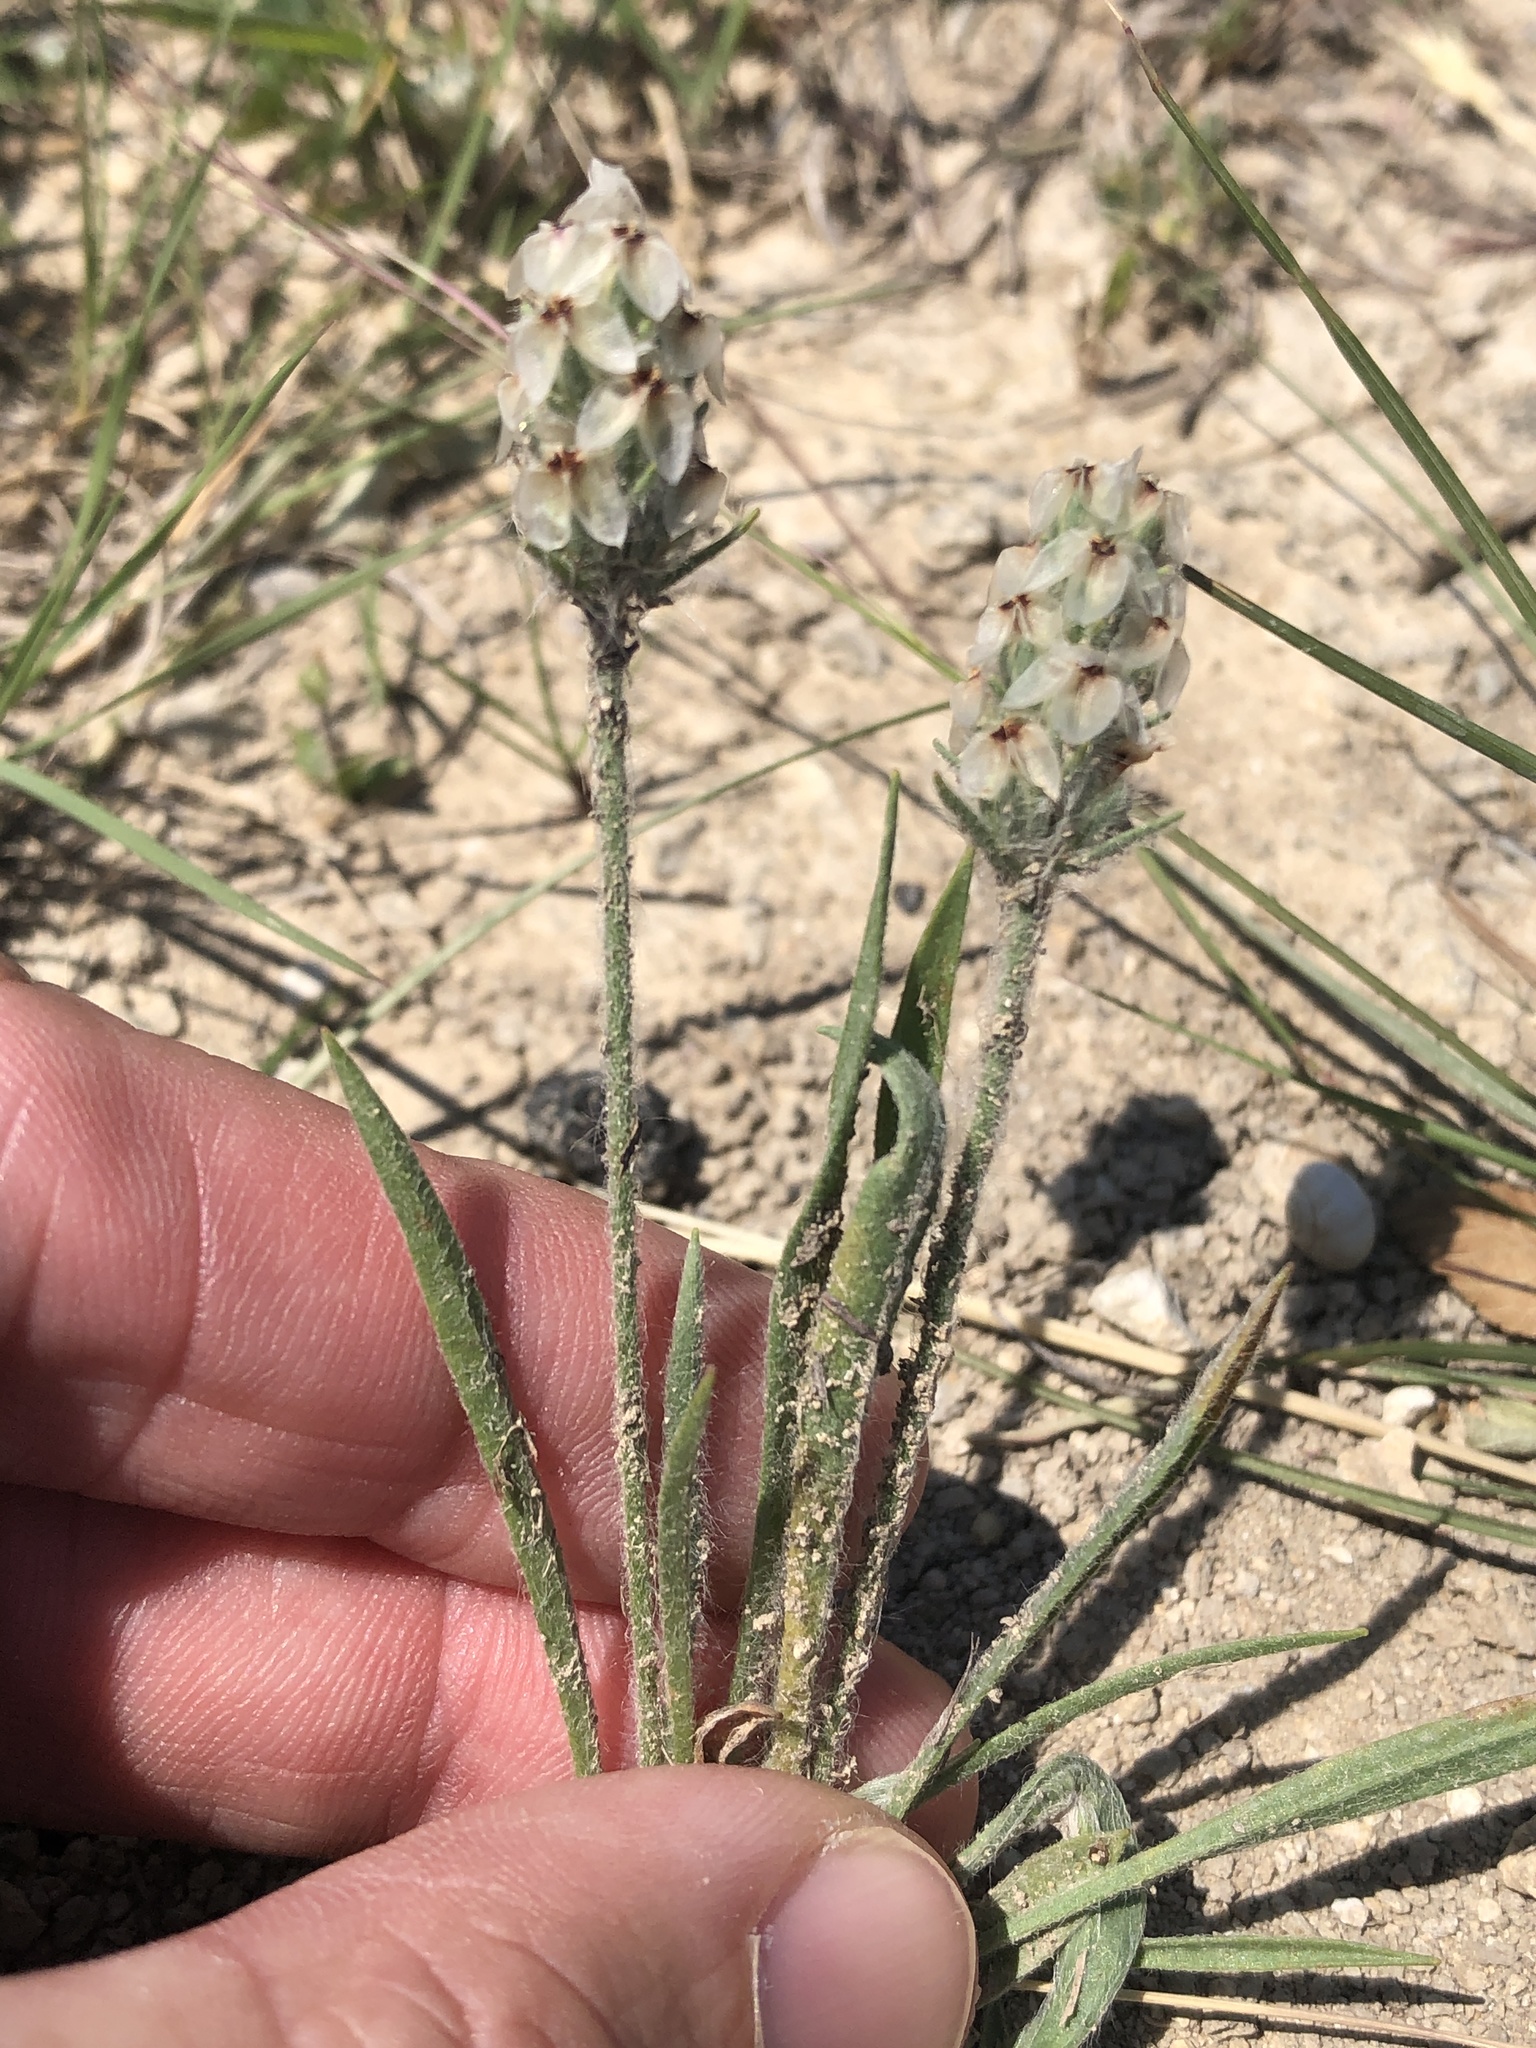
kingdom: Plantae
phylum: Tracheophyta
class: Magnoliopsida
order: Lamiales
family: Plantaginaceae
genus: Plantago
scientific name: Plantago helleri
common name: Heller's plantain
